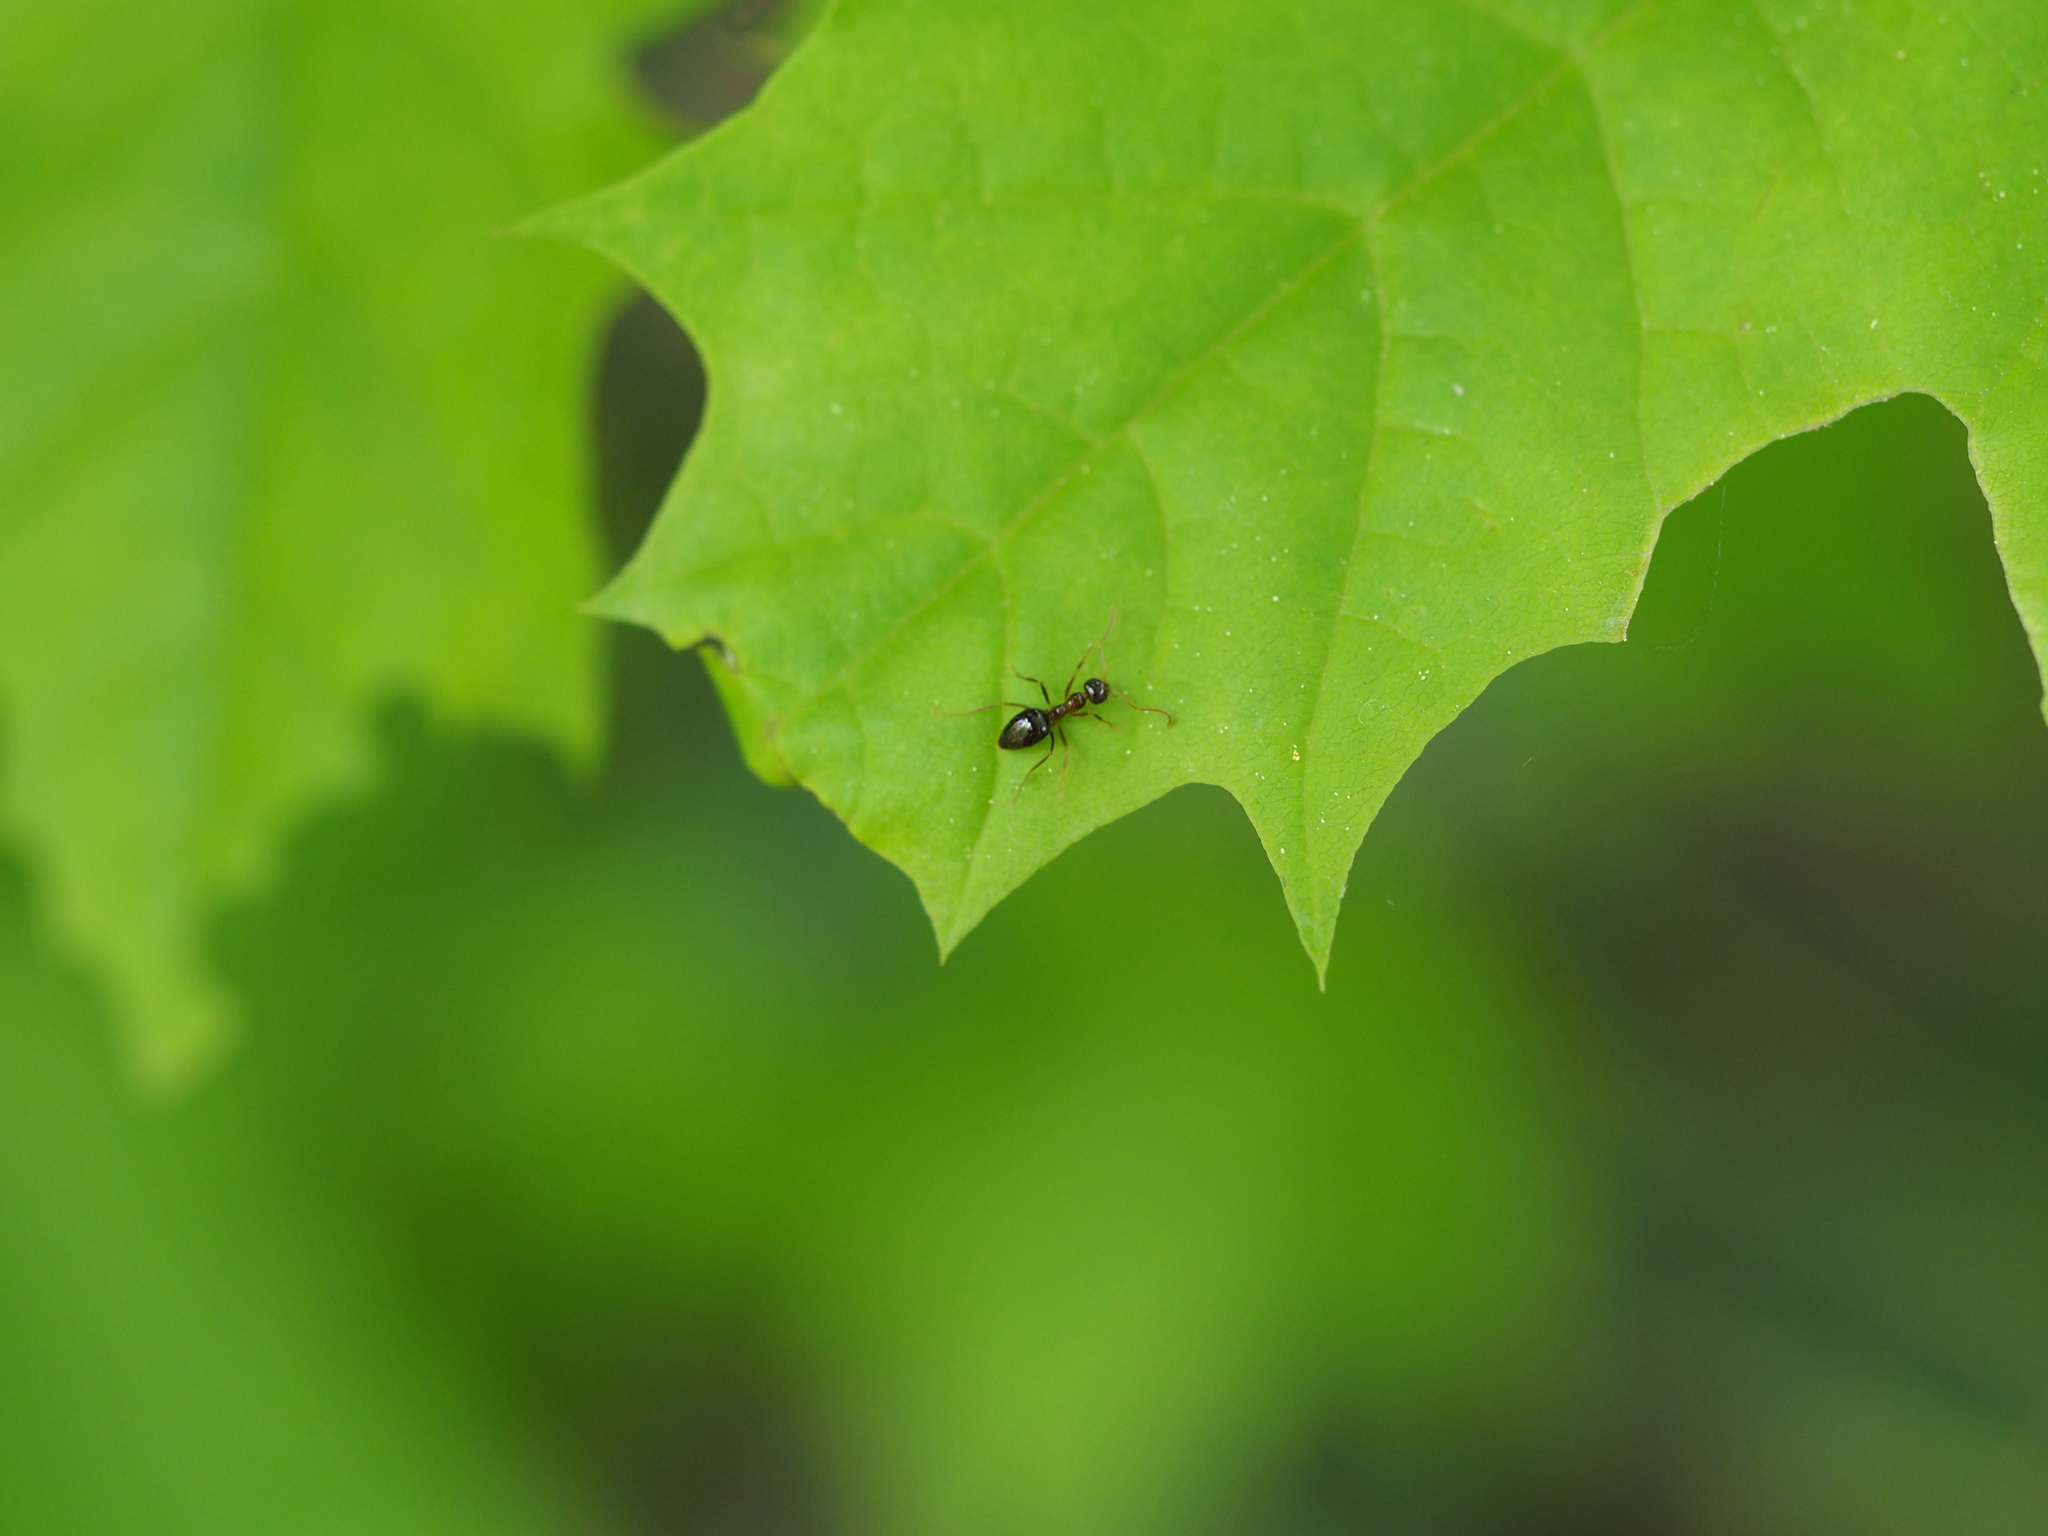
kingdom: Animalia
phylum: Arthropoda
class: Insecta
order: Hymenoptera
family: Formicidae
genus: Prenolepis
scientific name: Prenolepis nitens
